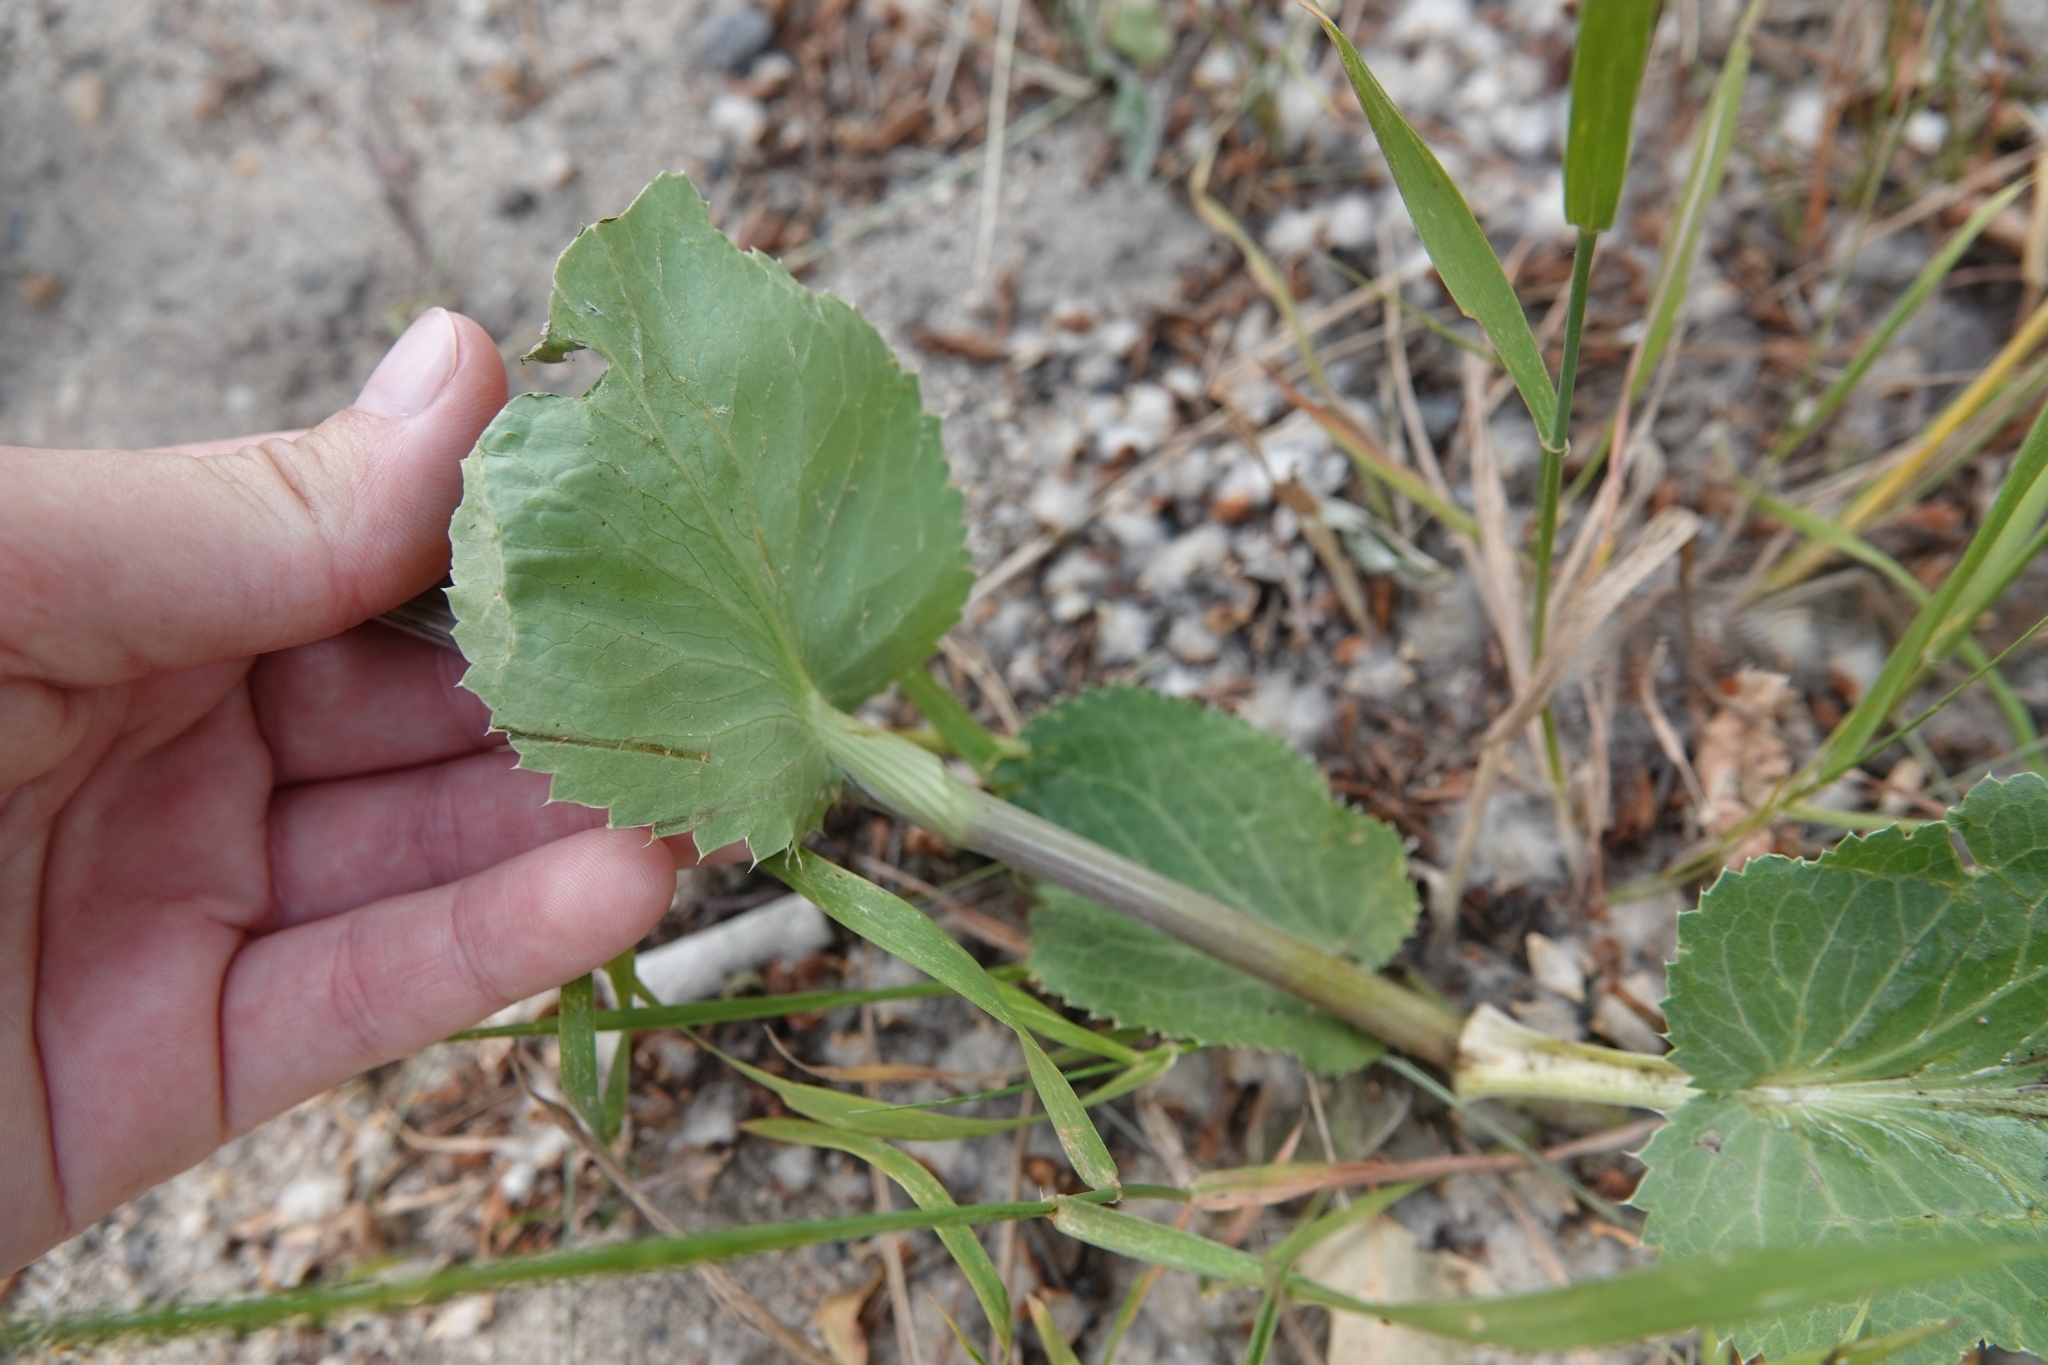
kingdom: Plantae
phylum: Tracheophyta
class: Magnoliopsida
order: Apiales
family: Apiaceae
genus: Eryngium
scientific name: Eryngium planum
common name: Blue eryngo
